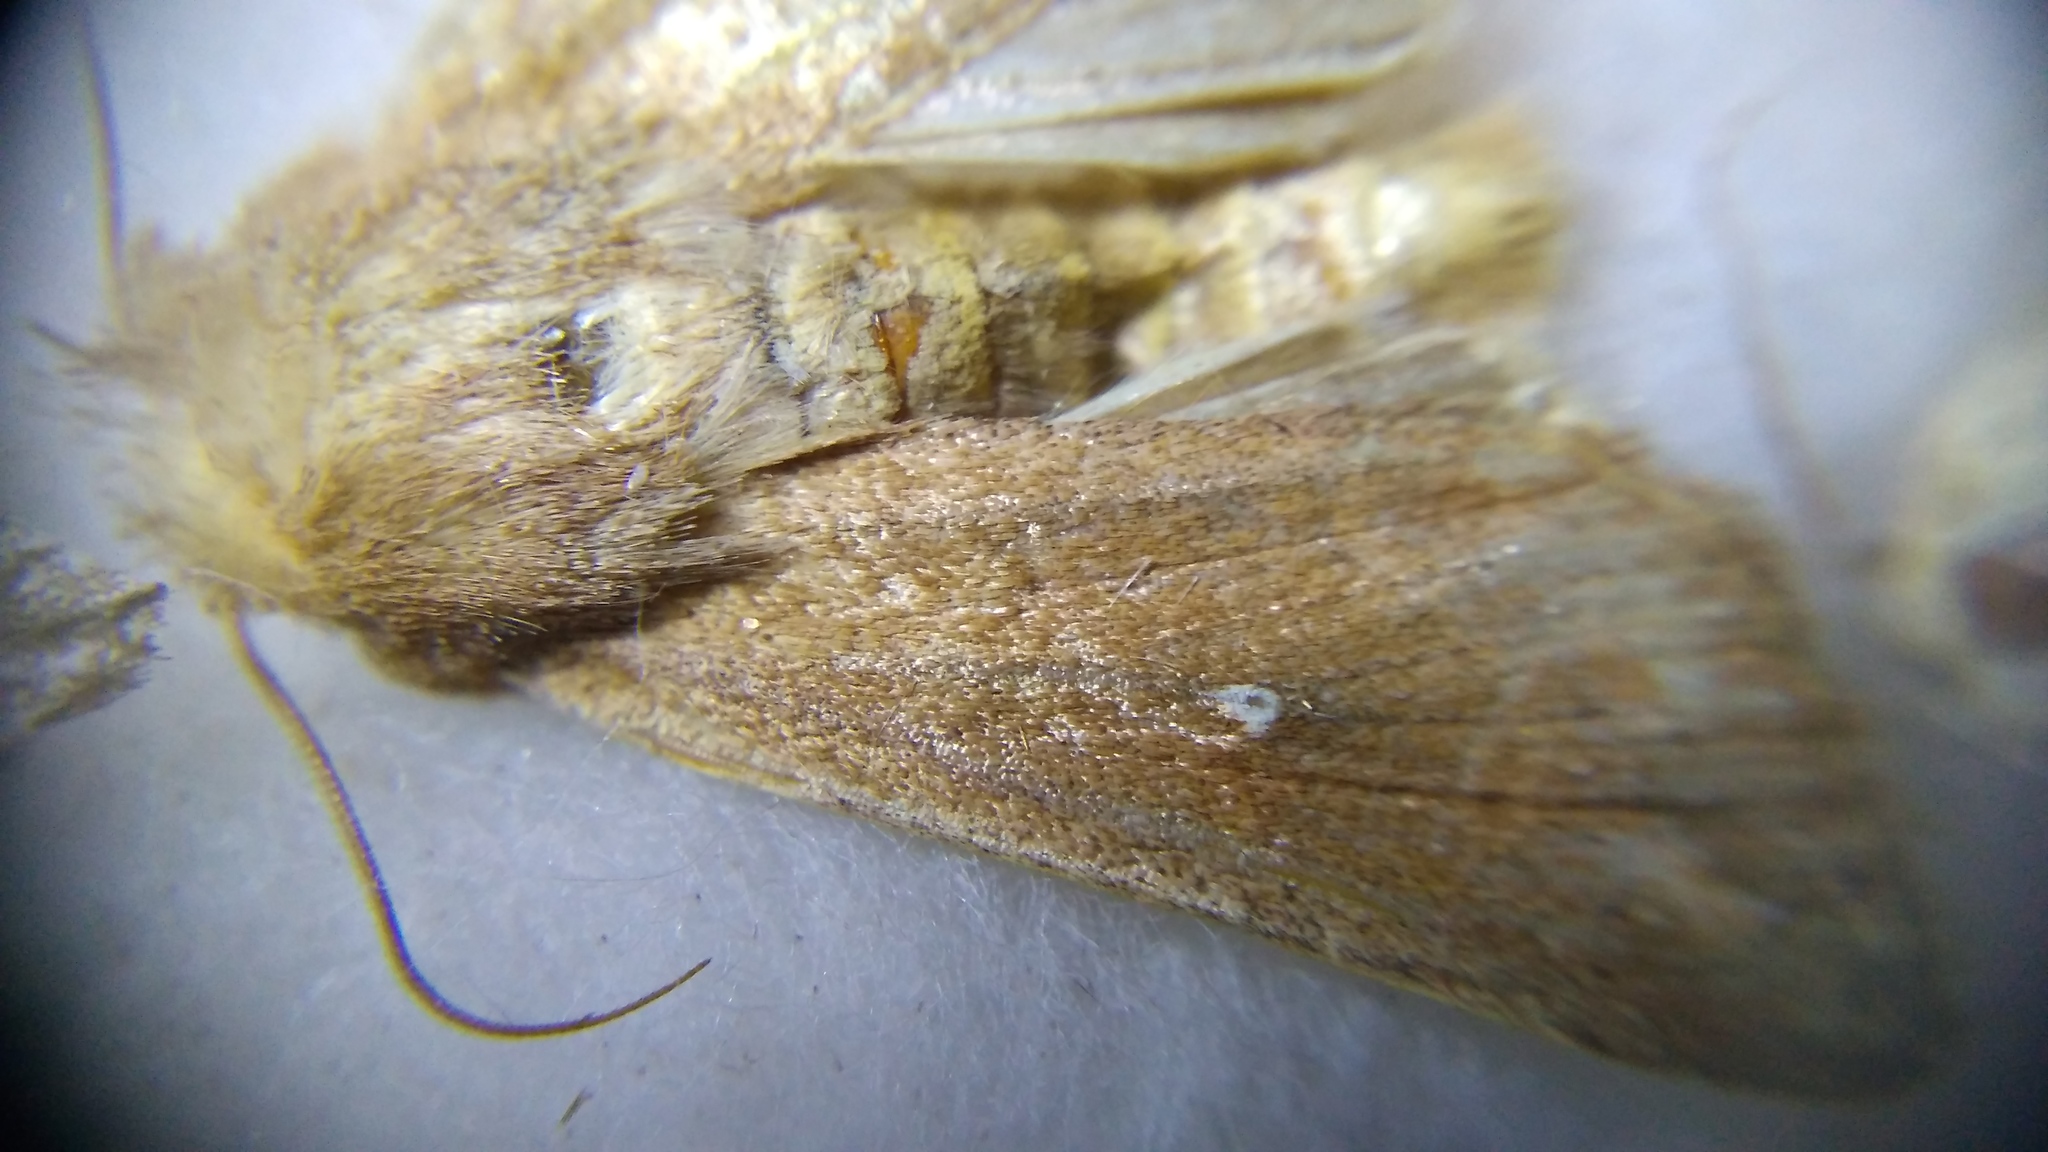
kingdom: Animalia
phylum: Arthropoda
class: Insecta
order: Lepidoptera
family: Noctuidae
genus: Mythimna
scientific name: Mythimna albipuncta
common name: White-point
